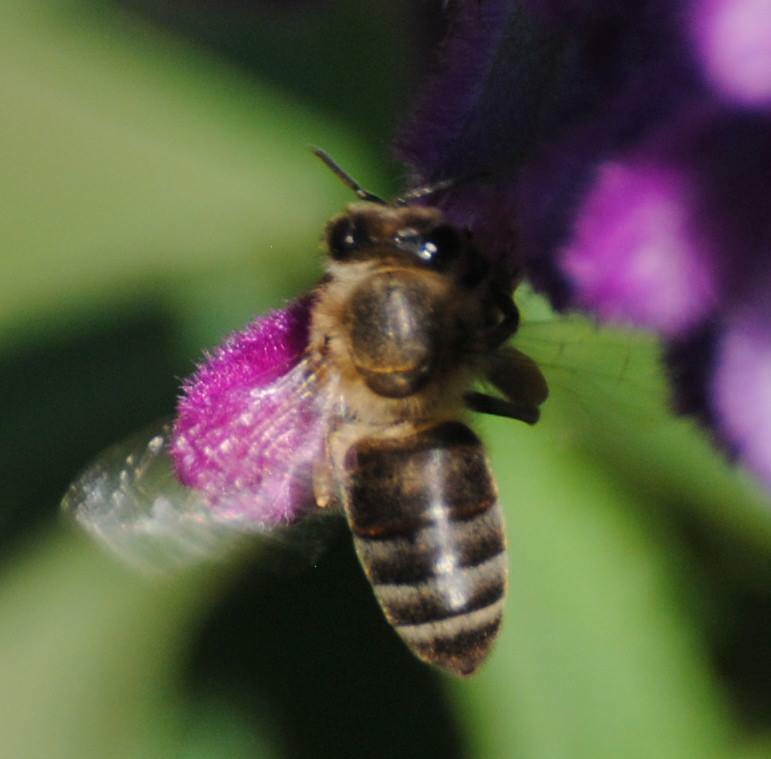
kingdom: Animalia
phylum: Arthropoda
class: Insecta
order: Hymenoptera
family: Apidae
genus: Apis
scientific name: Apis mellifera
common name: Honey bee
